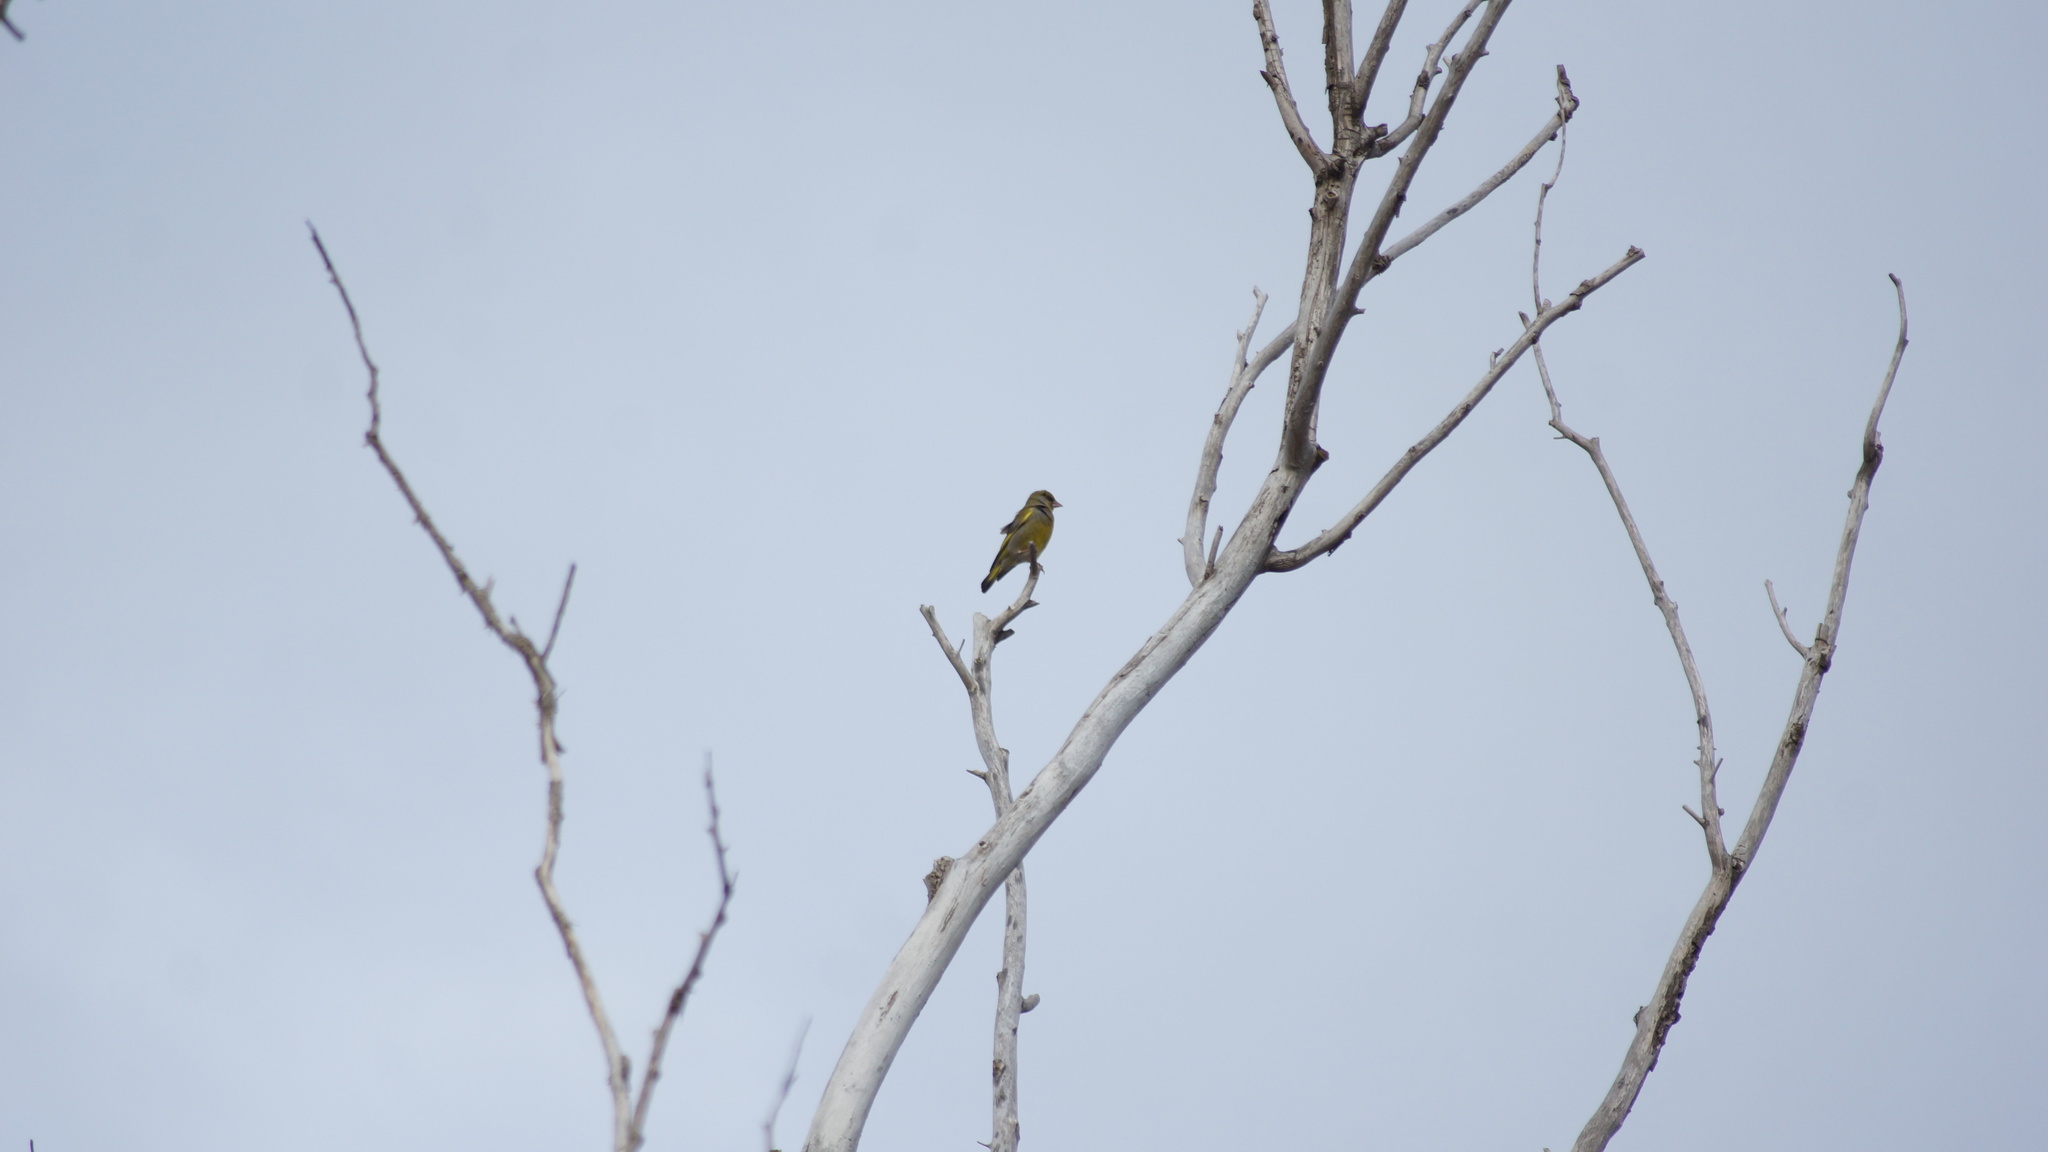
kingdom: Plantae
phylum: Tracheophyta
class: Liliopsida
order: Poales
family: Poaceae
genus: Chloris
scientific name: Chloris chloris
